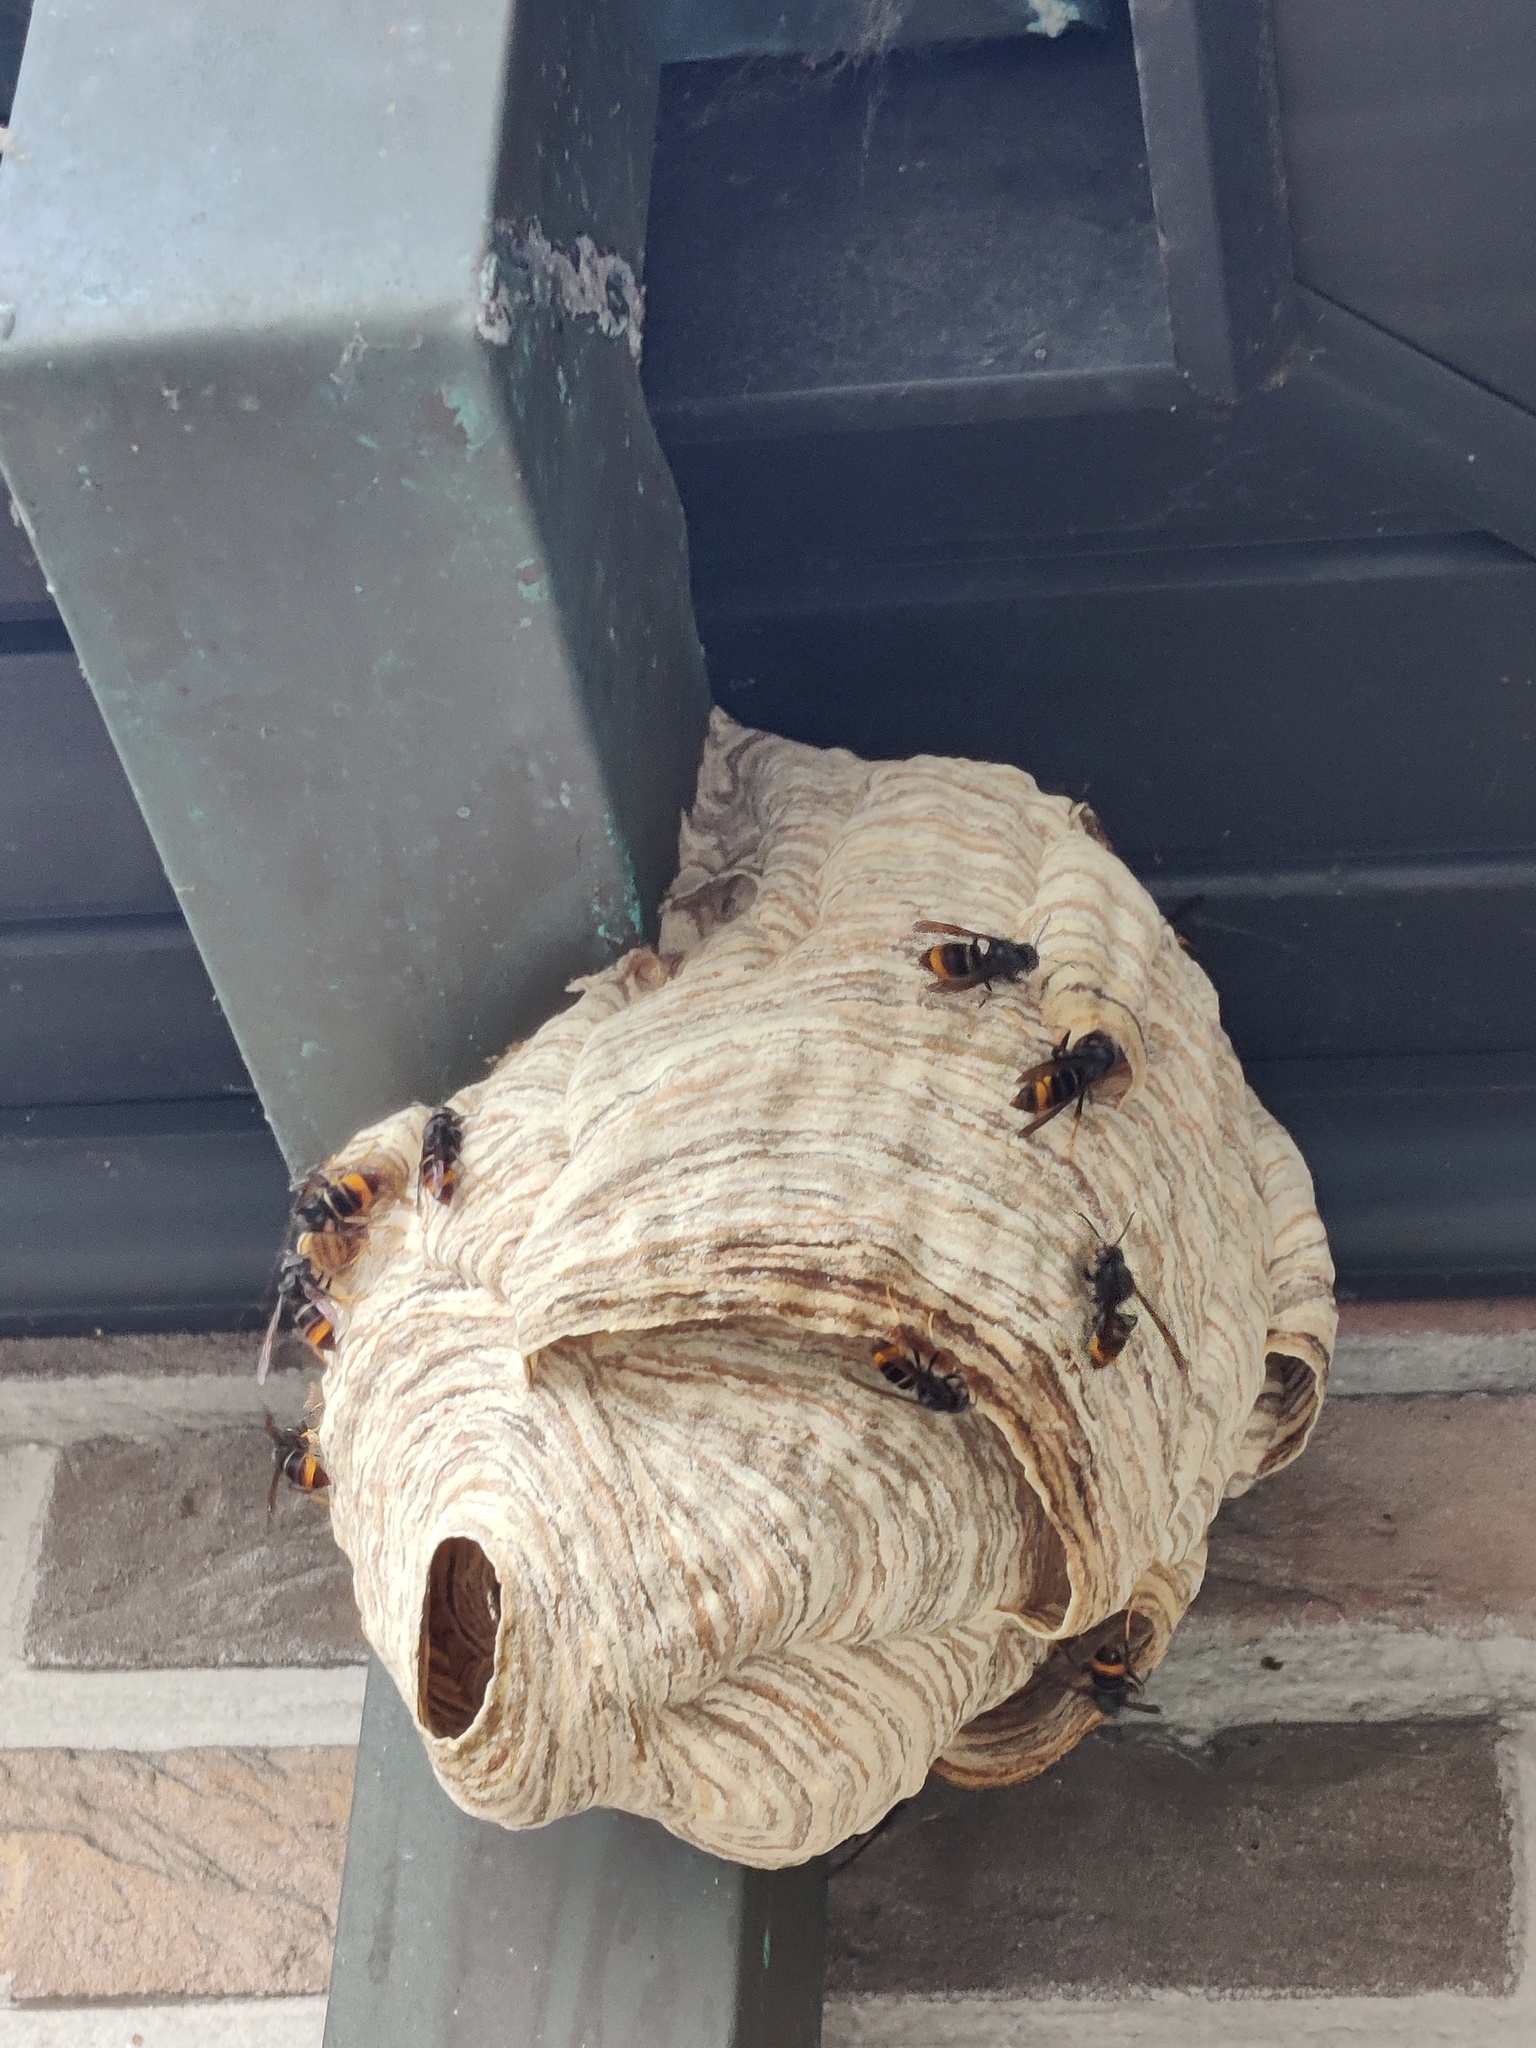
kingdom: Animalia
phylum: Arthropoda
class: Insecta
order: Hymenoptera
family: Vespidae
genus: Vespa
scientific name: Vespa velutina
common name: Asian hornet
